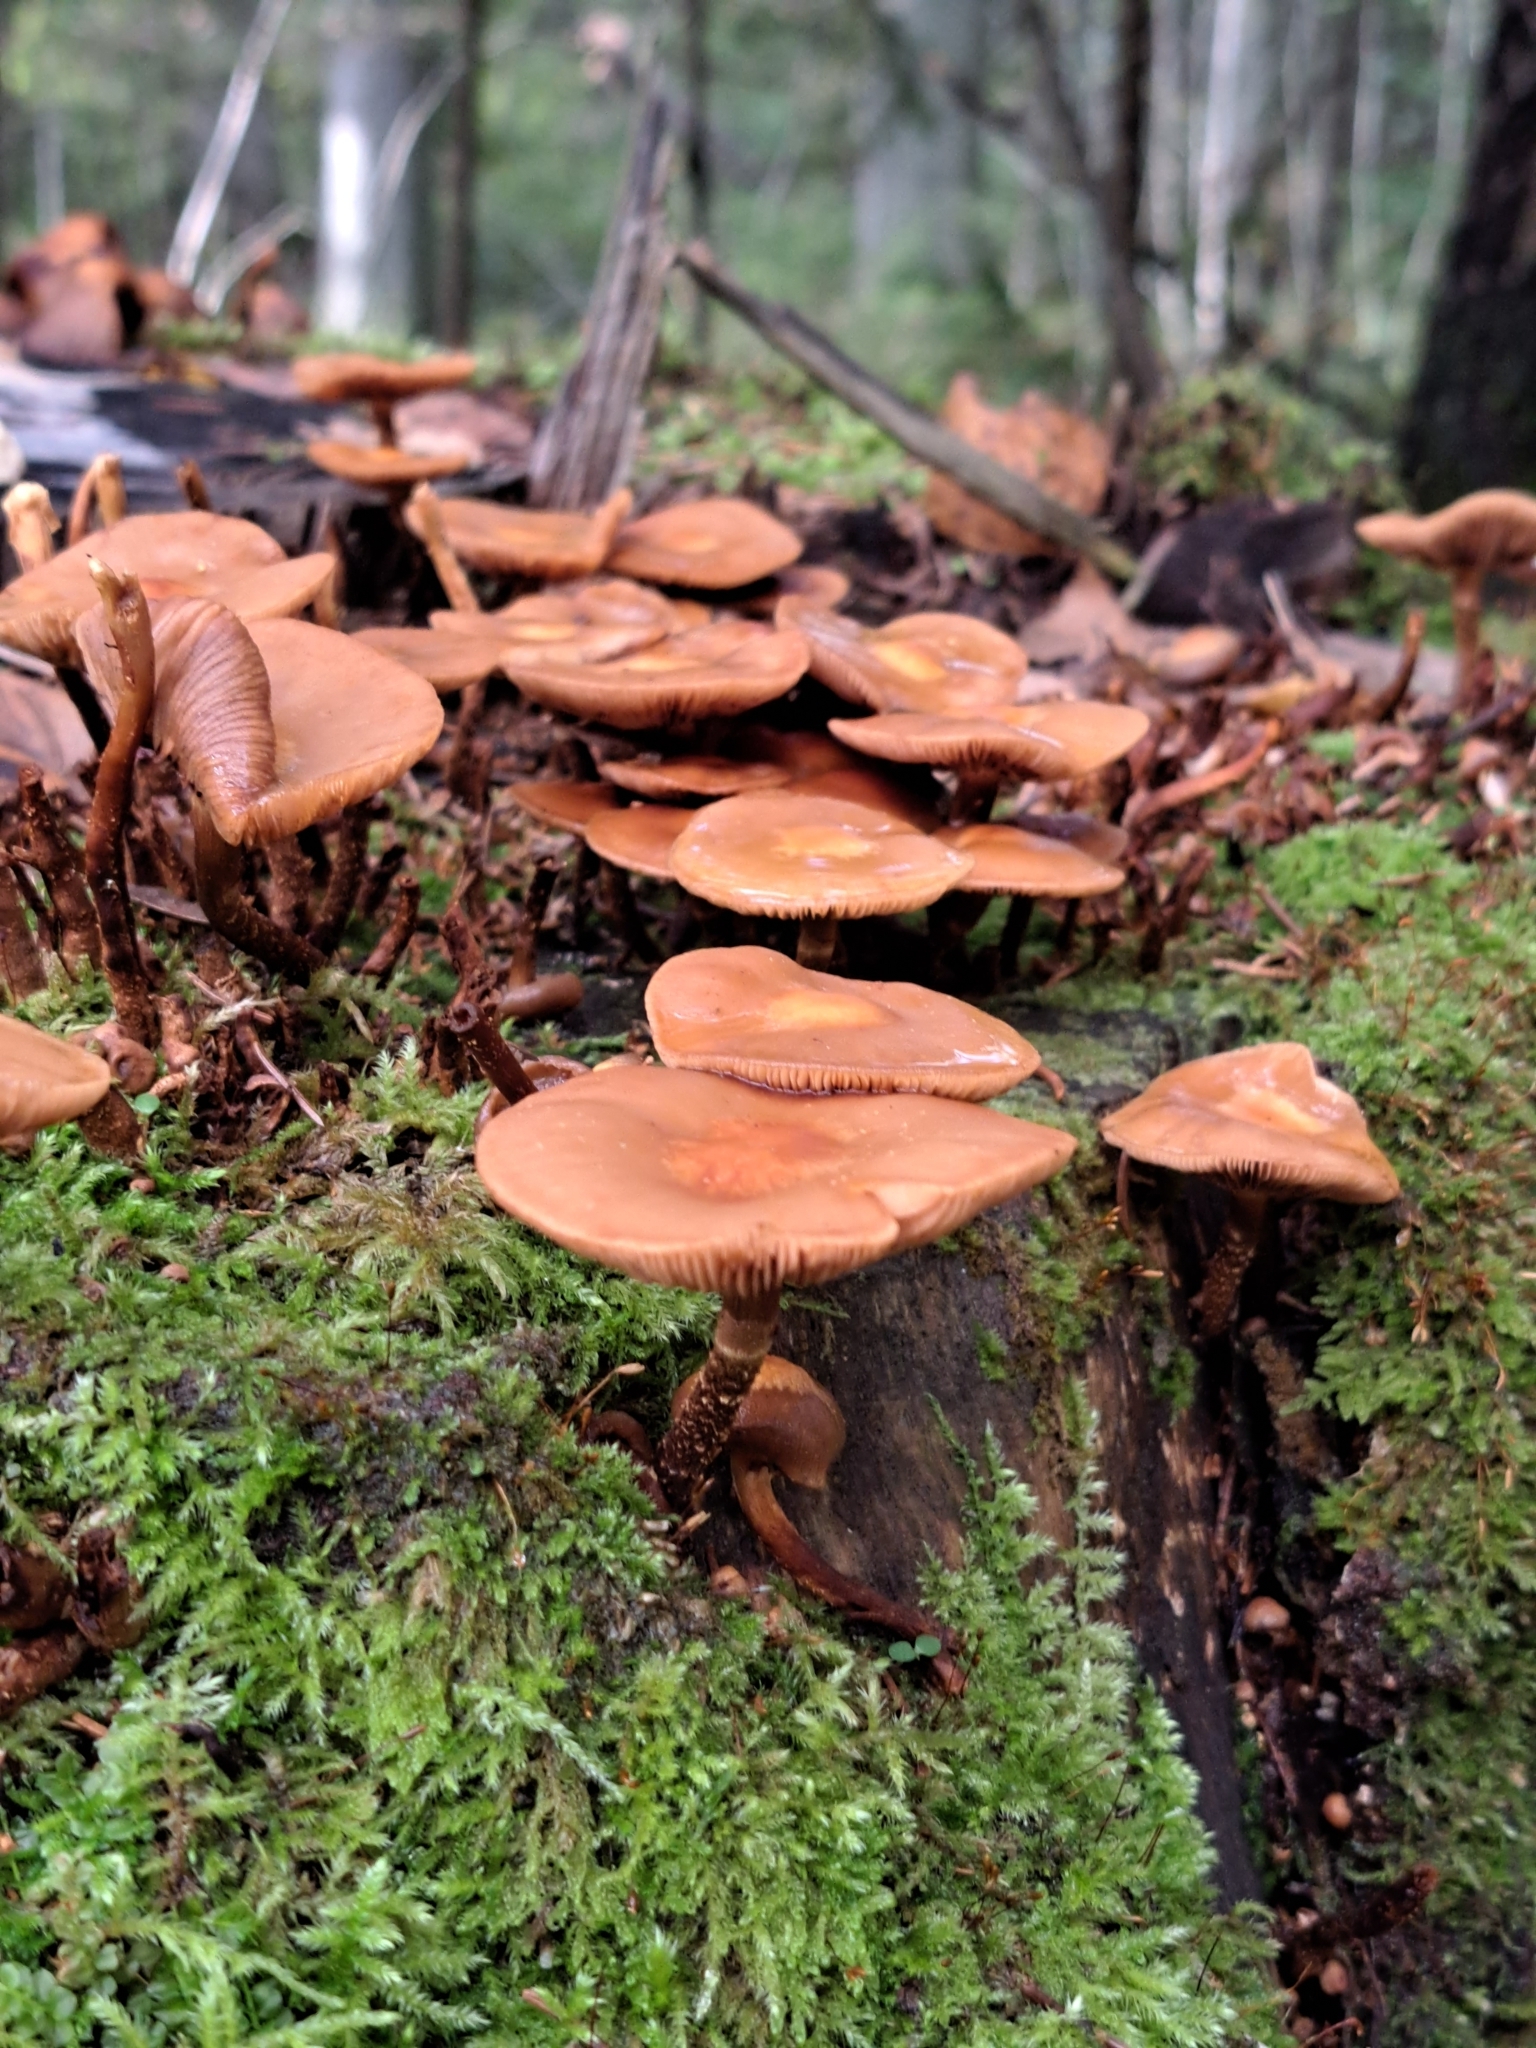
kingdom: Fungi
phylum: Basidiomycota
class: Agaricomycetes
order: Agaricales
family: Strophariaceae
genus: Kuehneromyces
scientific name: Kuehneromyces mutabilis
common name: Sheathed woodtuft
